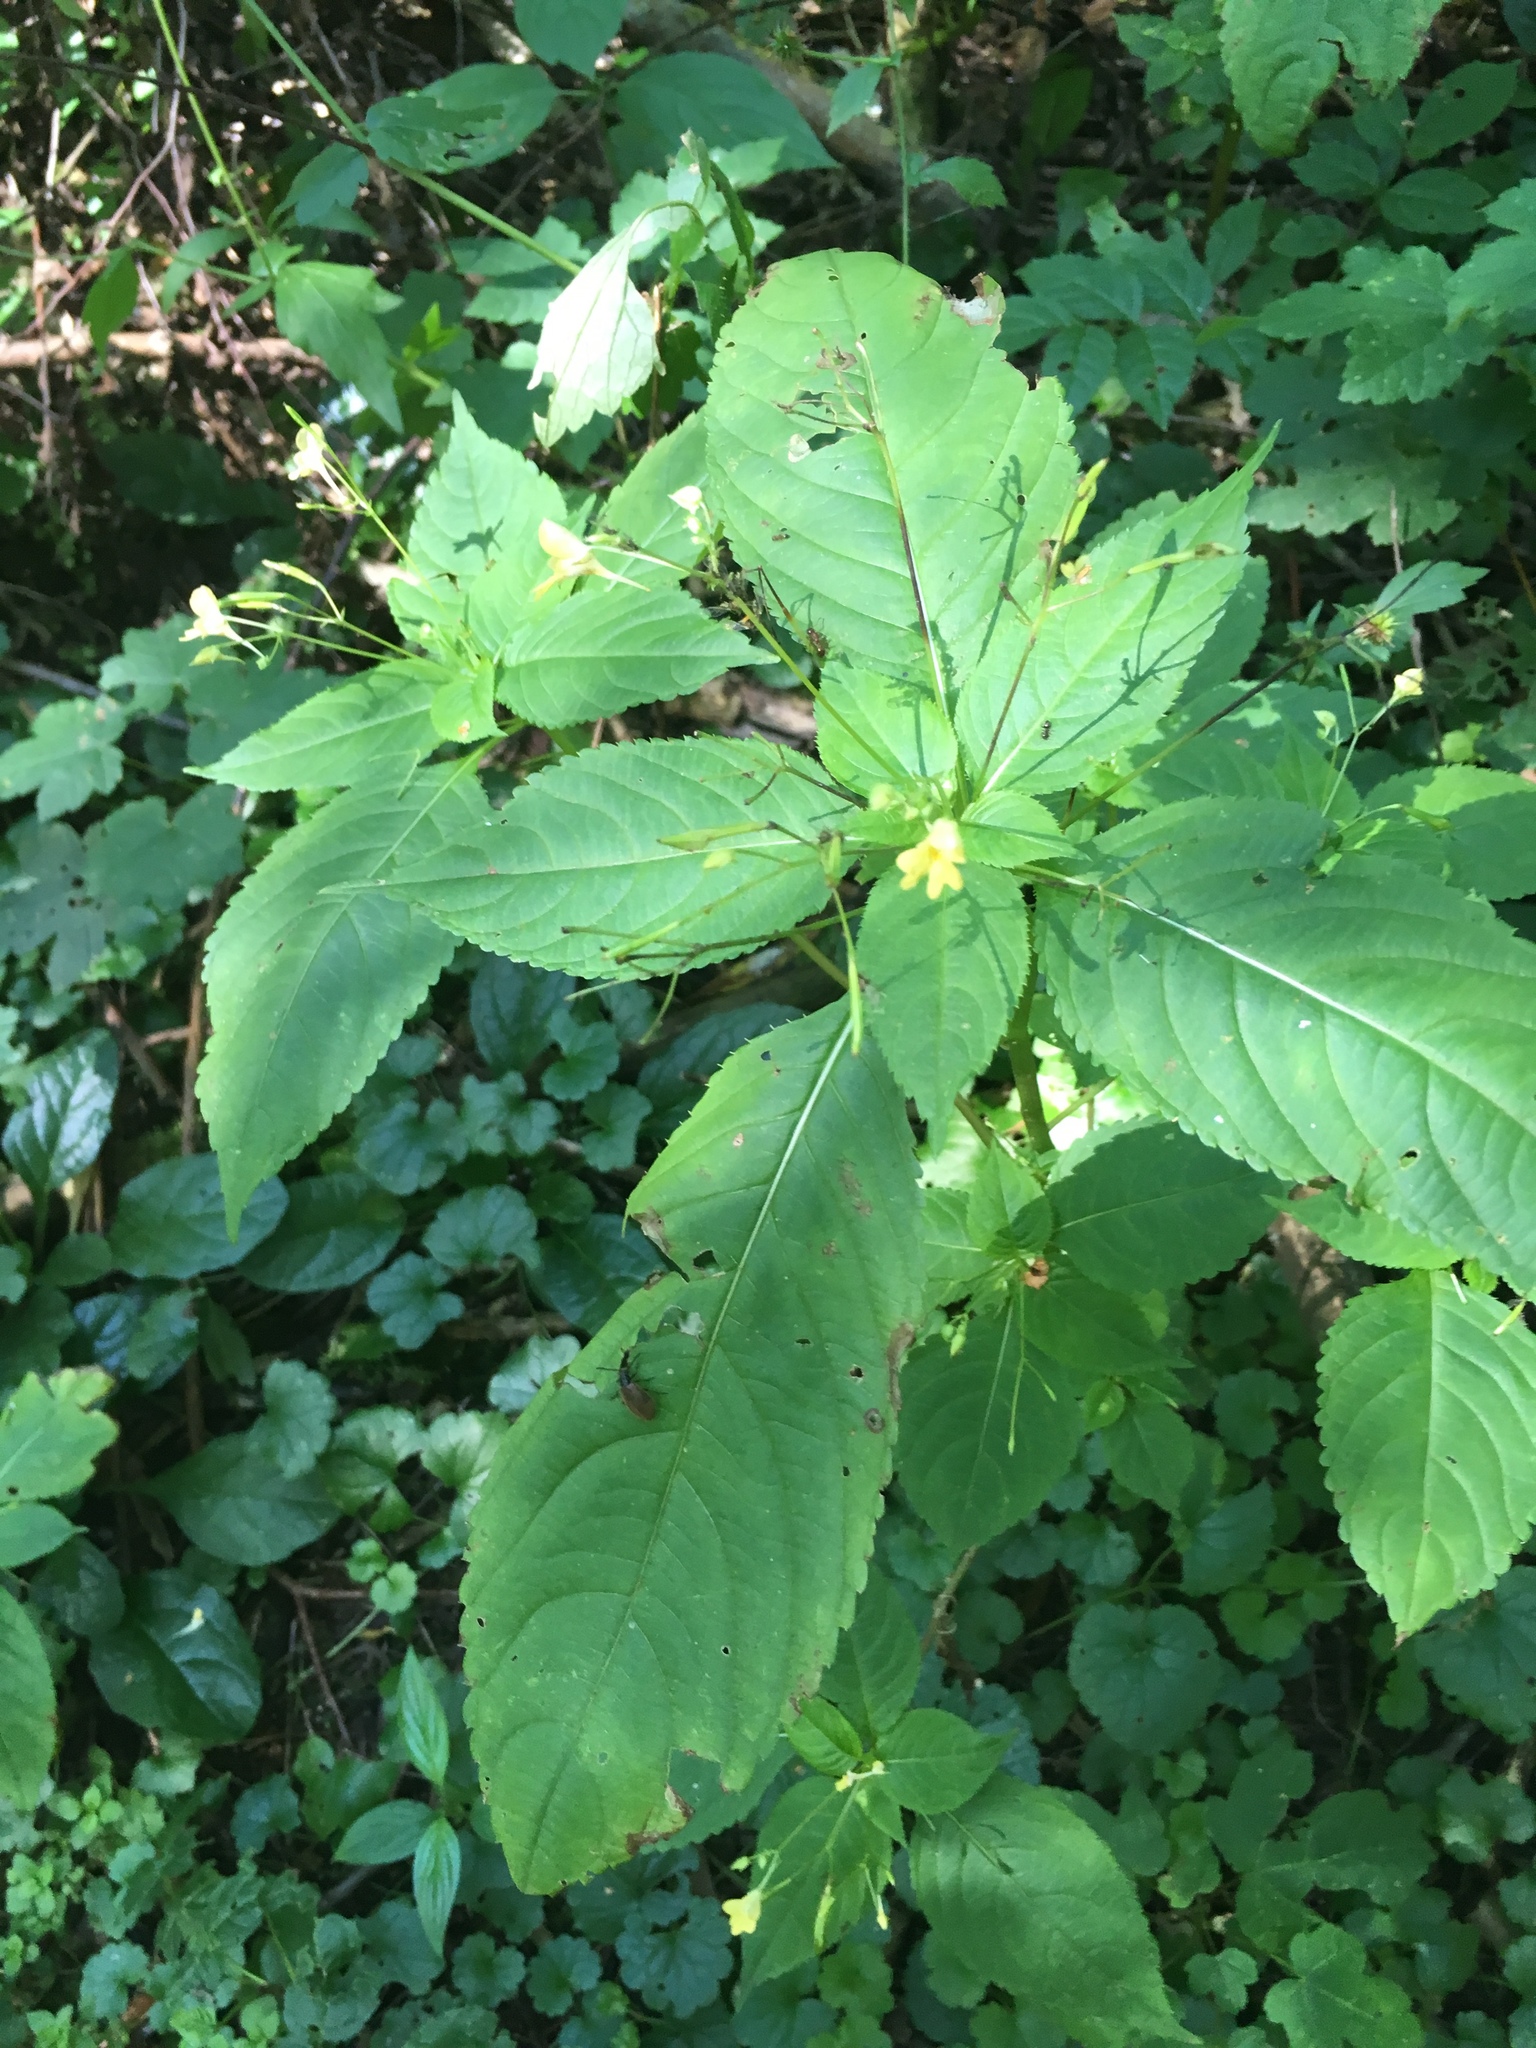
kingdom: Plantae
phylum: Tracheophyta
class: Magnoliopsida
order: Ericales
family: Balsaminaceae
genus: Impatiens
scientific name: Impatiens parviflora
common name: Small balsam
